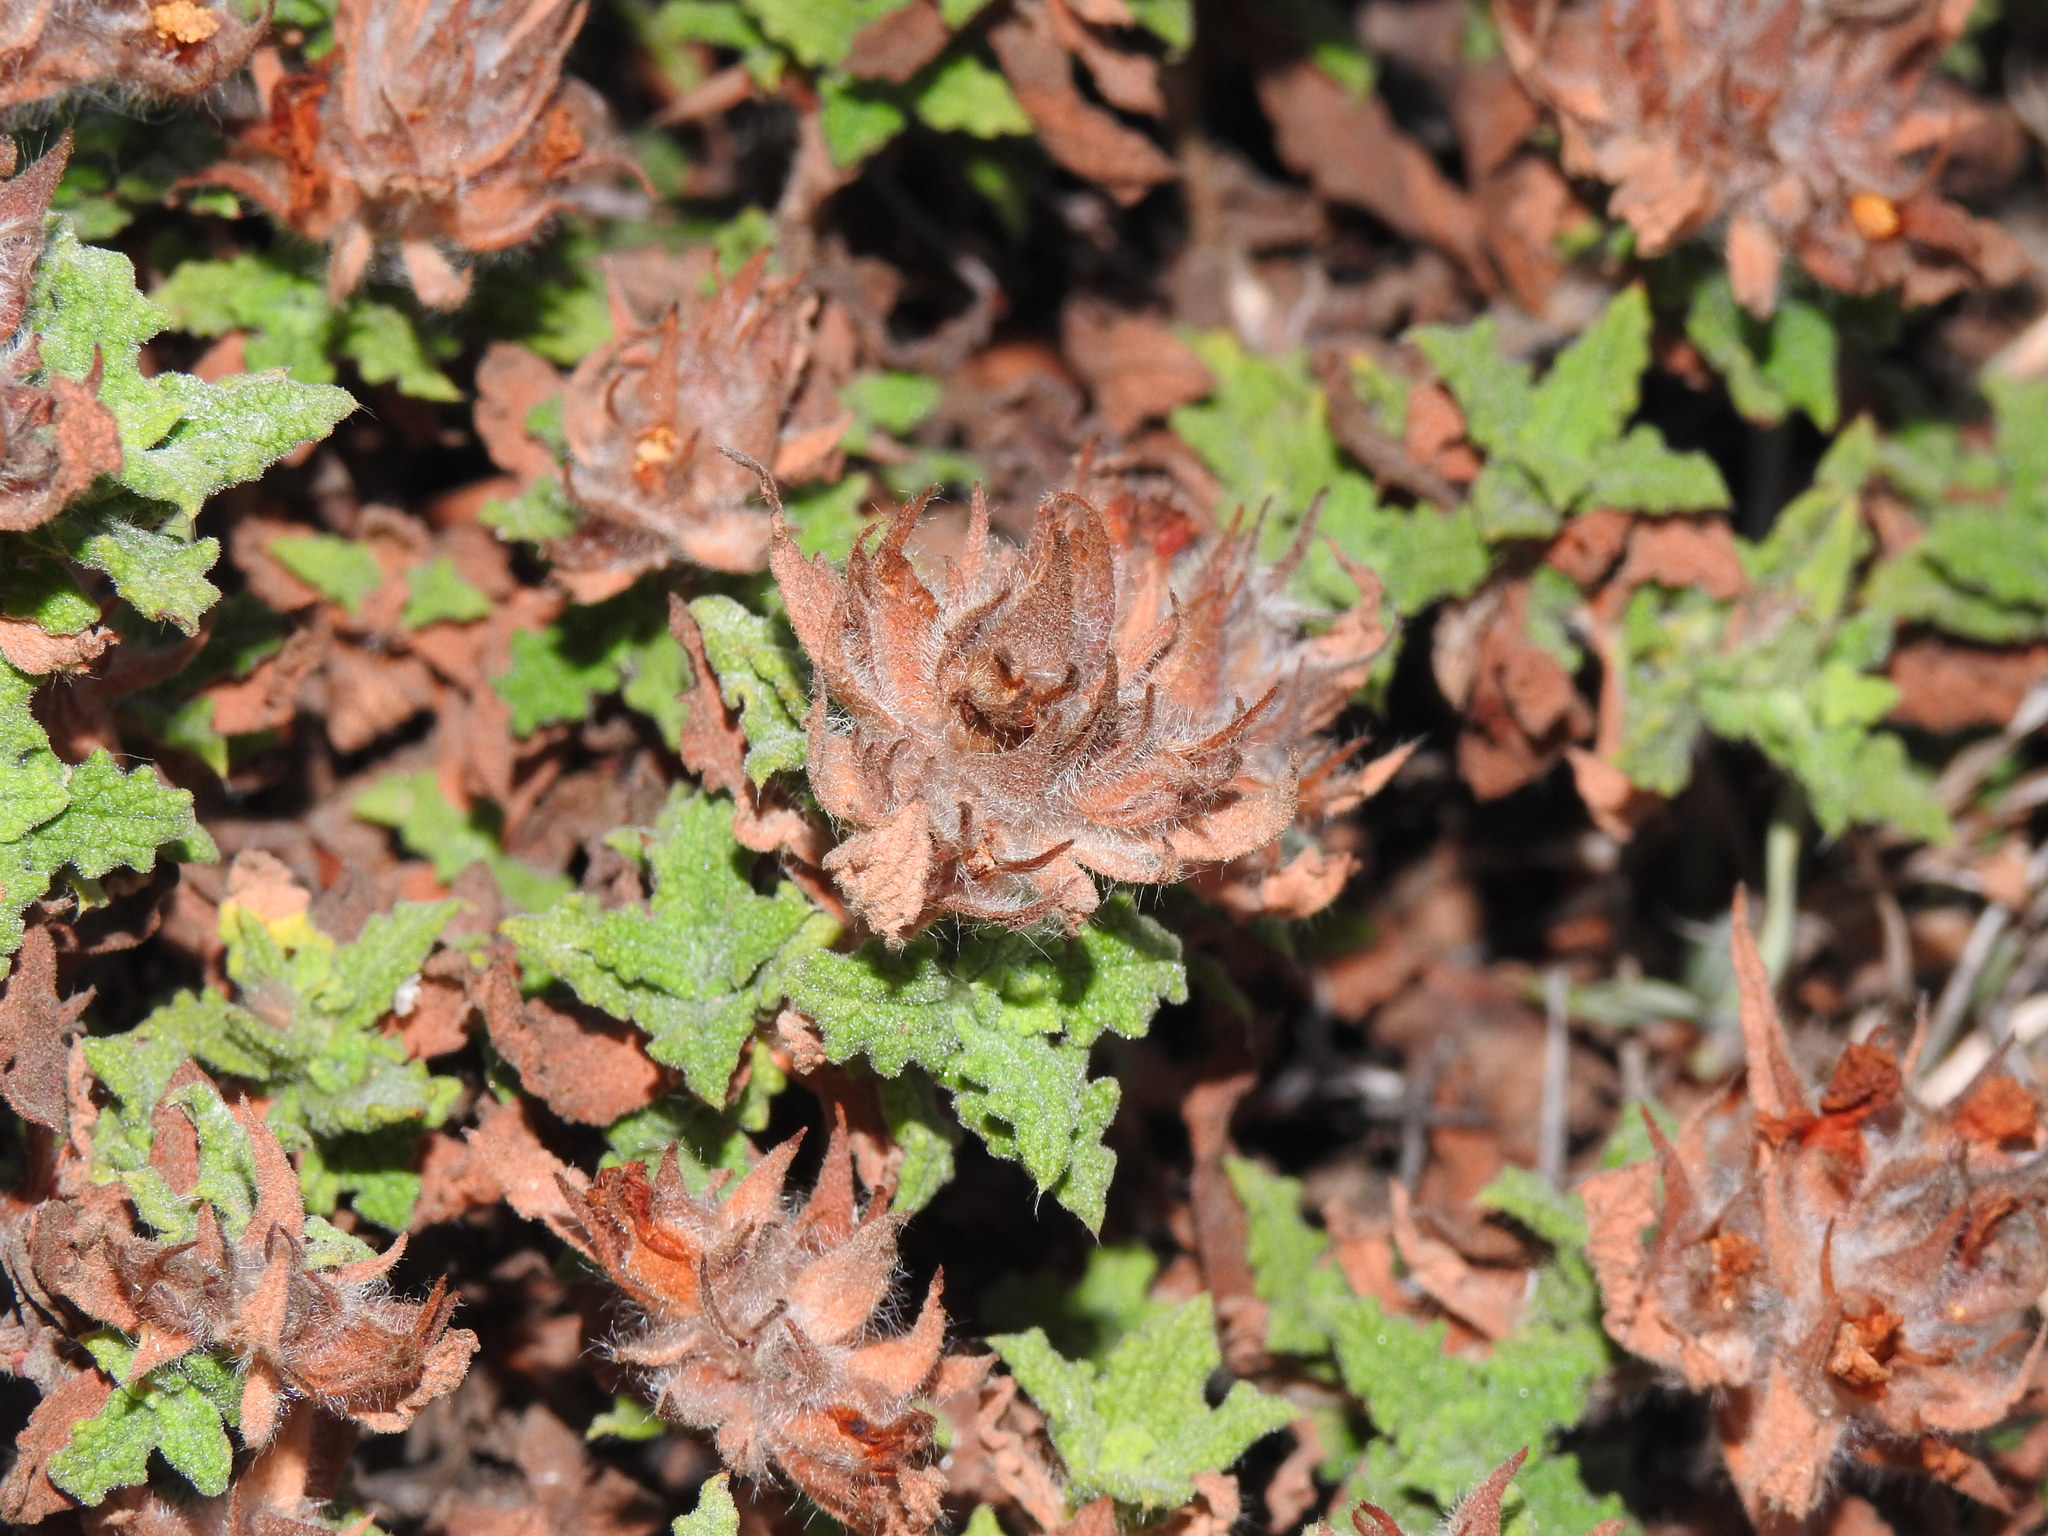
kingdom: Plantae
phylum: Tracheophyta
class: Magnoliopsida
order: Malvales
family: Cistaceae
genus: Cistus
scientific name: Cistus crispus
